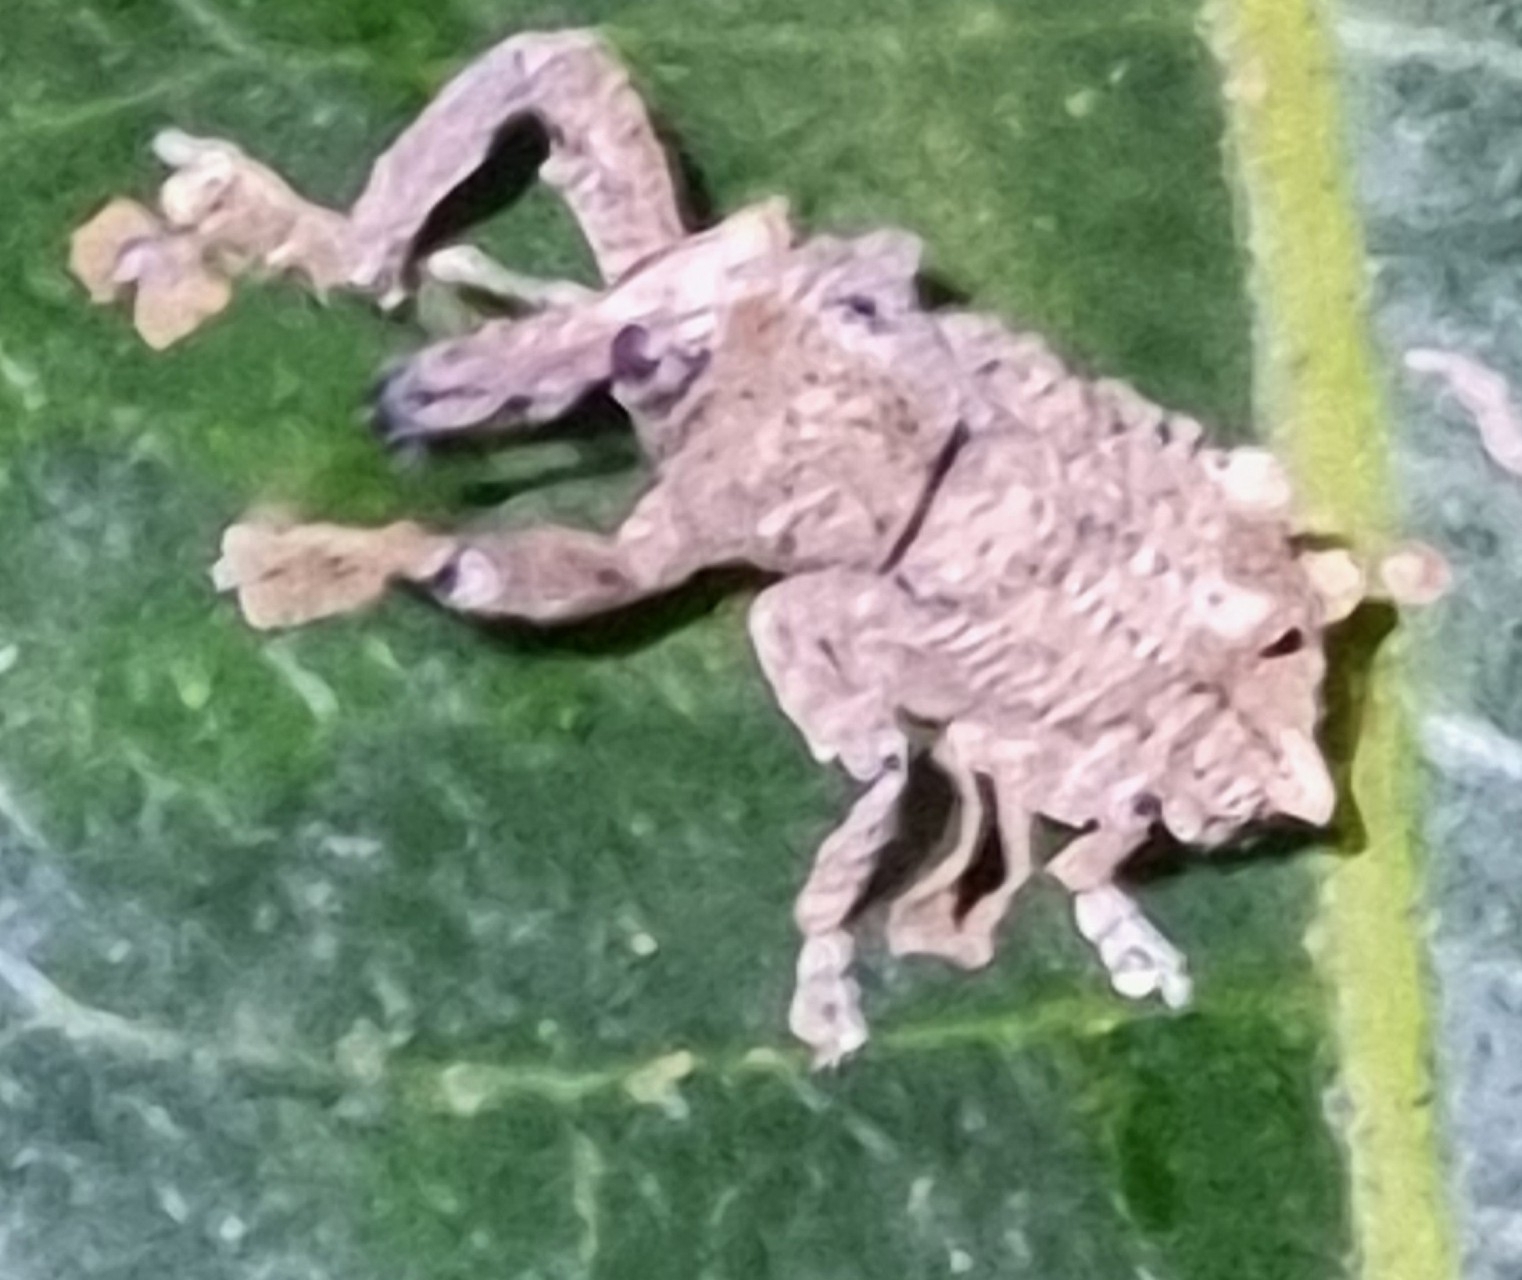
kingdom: Animalia
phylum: Arthropoda
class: Insecta
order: Coleoptera
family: Curculionidae
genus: Orthorhinus
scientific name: Orthorhinus cylindrirostris
